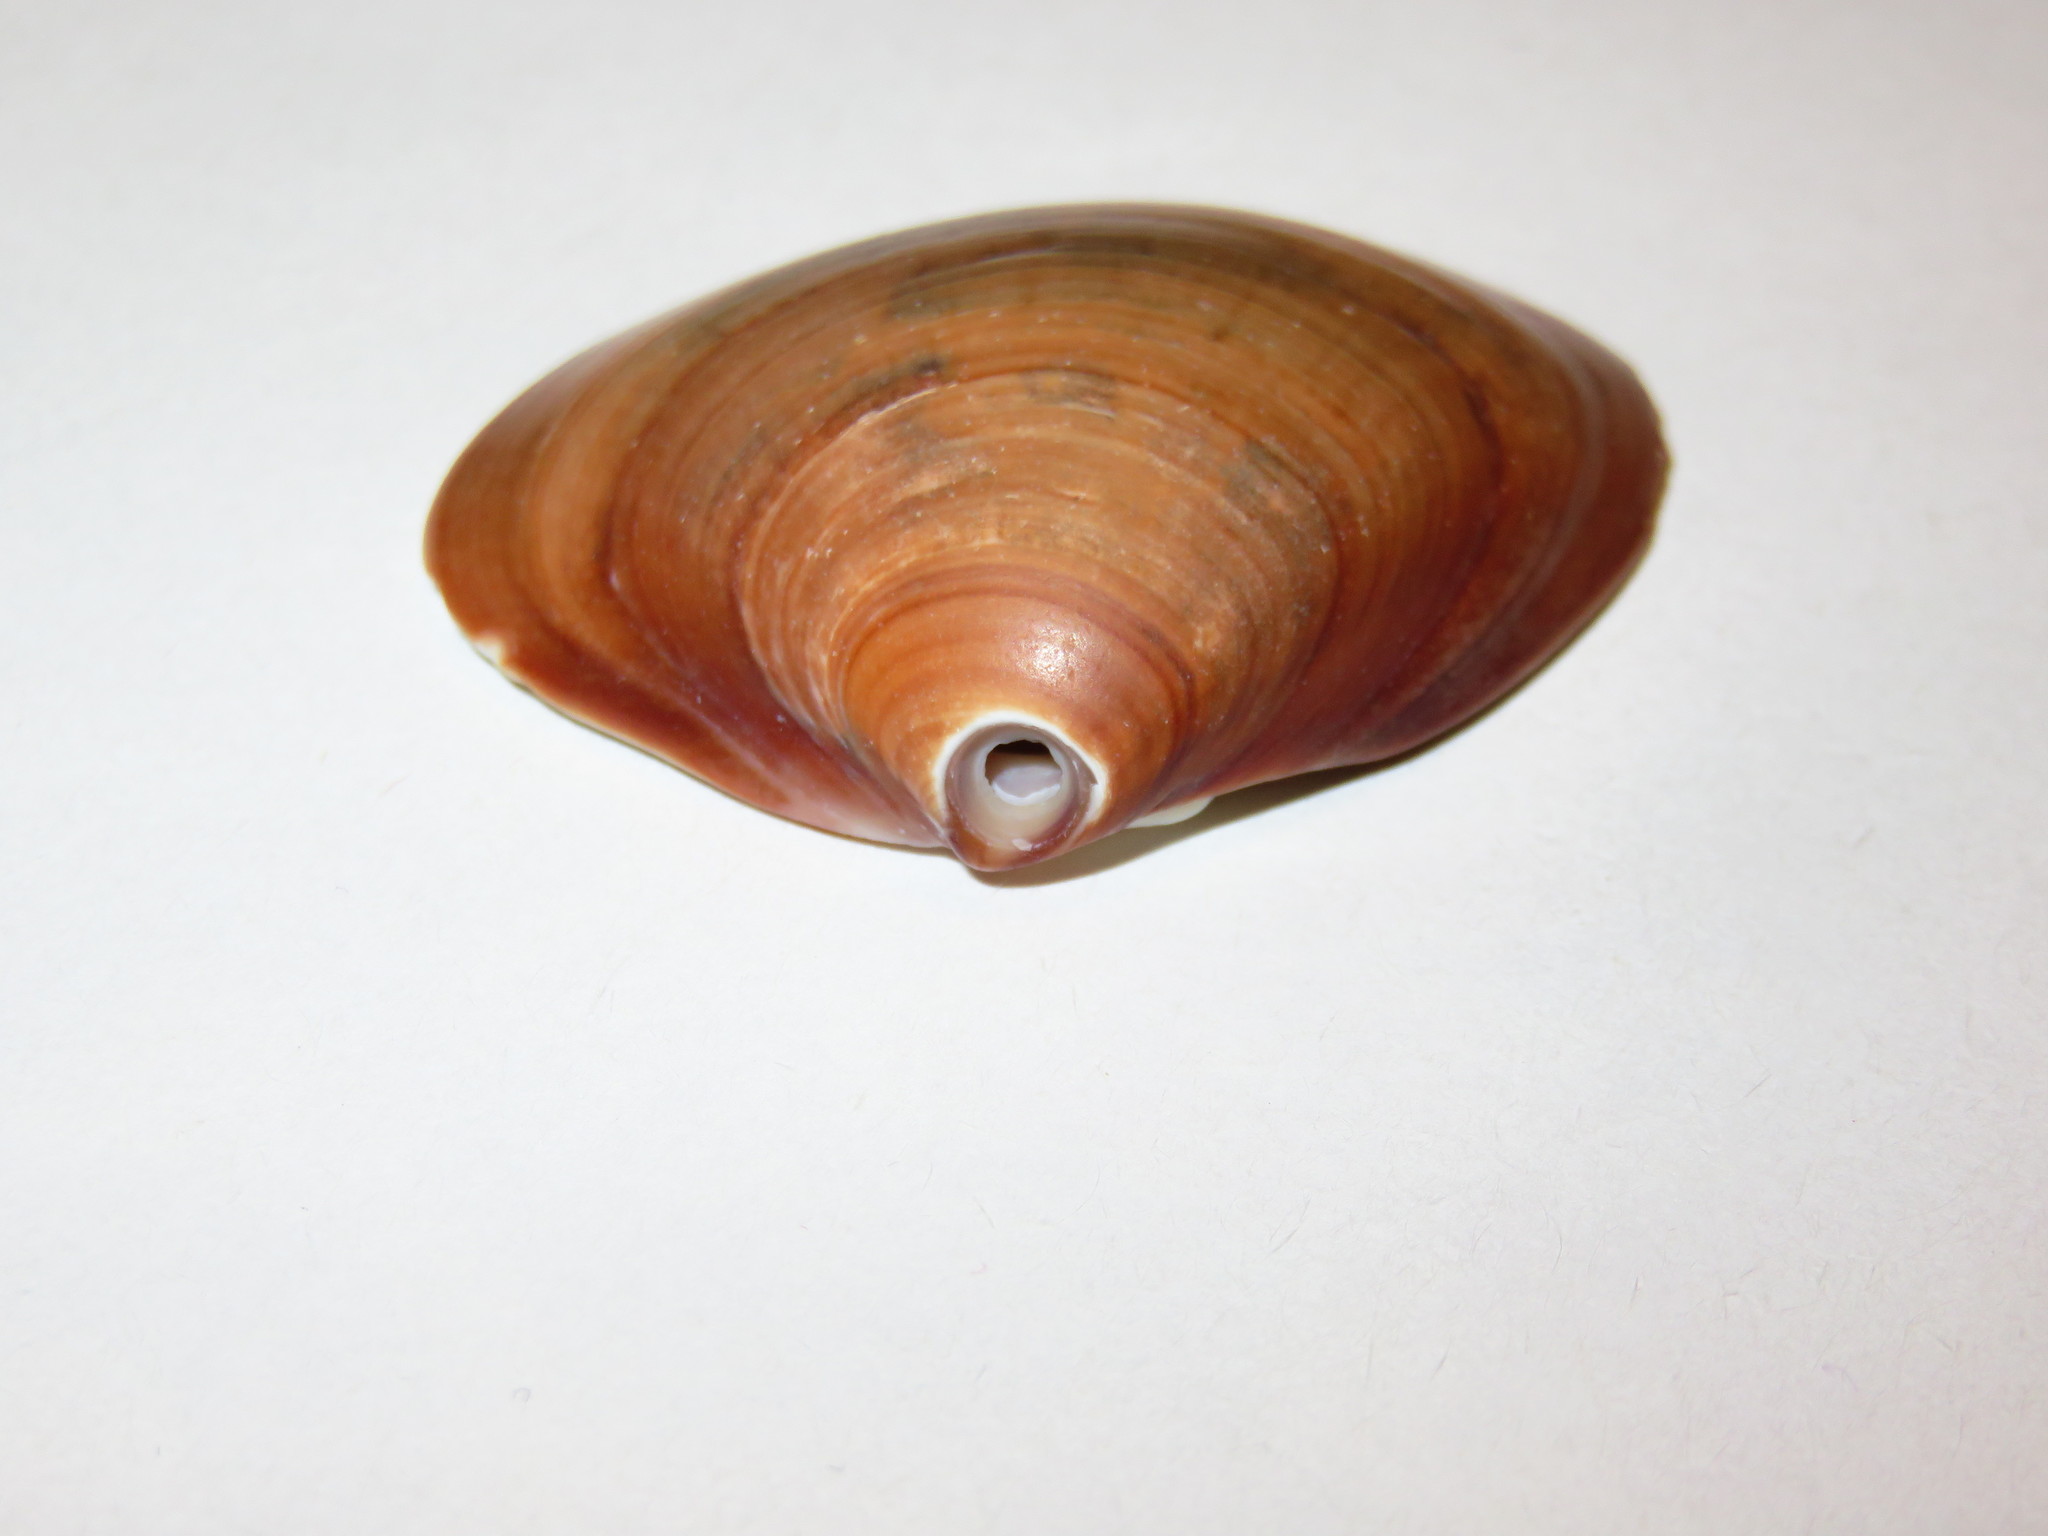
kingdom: Animalia
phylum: Mollusca
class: Bivalvia
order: Venerida
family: Veneridae
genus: Meretrix
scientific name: Meretrix petechialis
